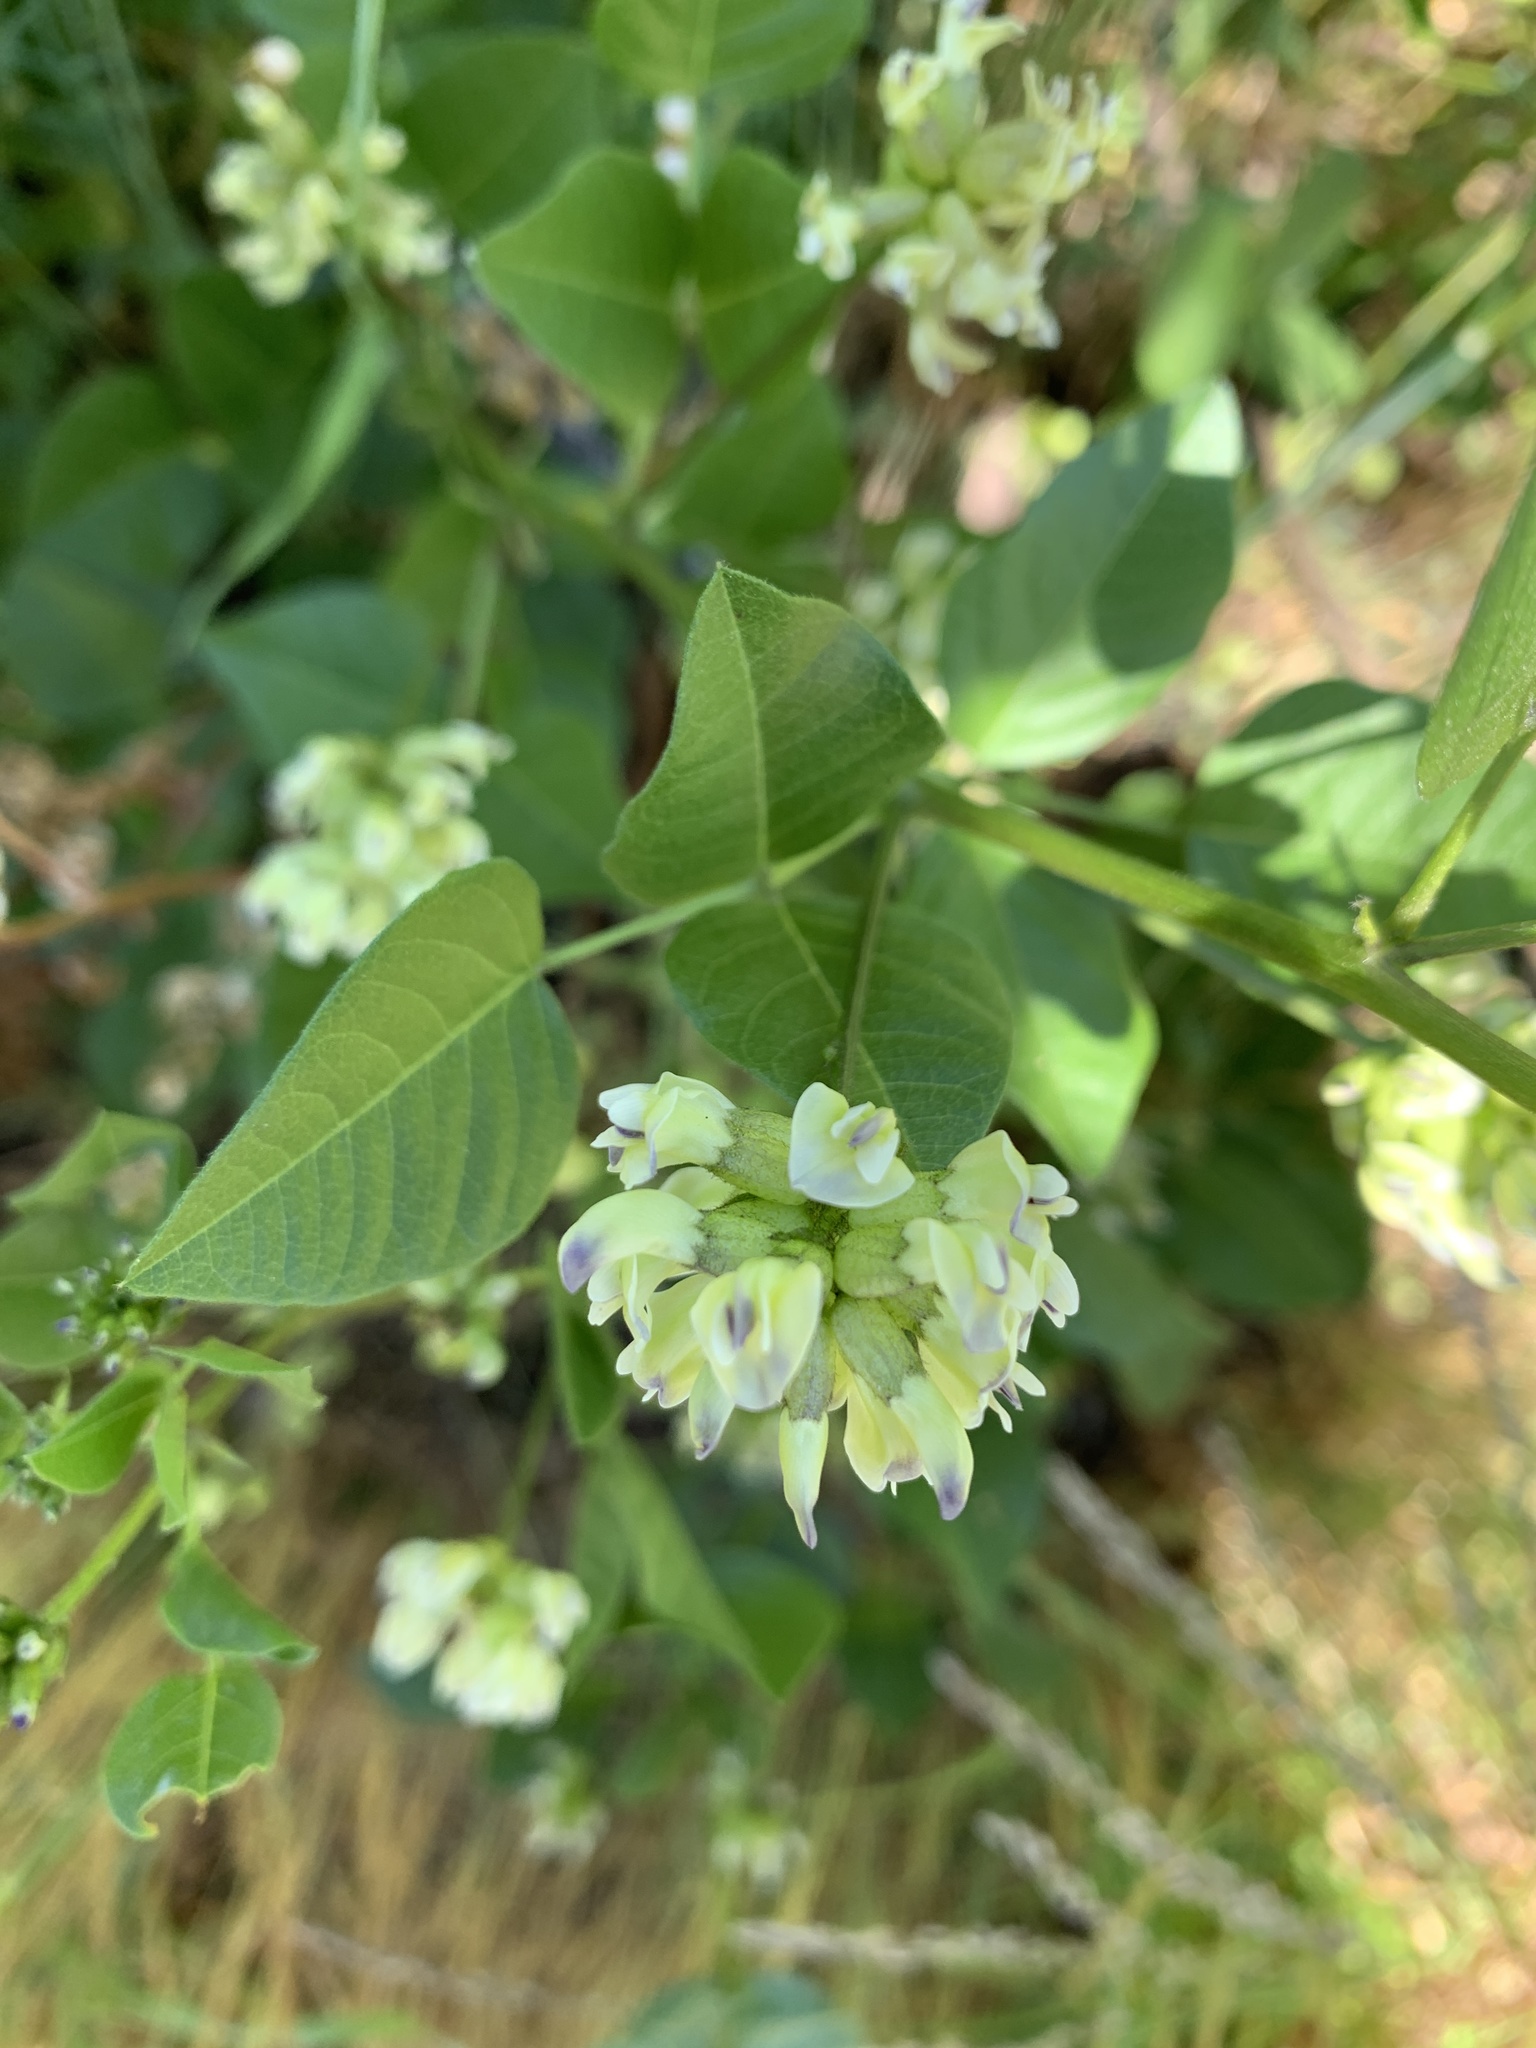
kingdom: Plantae
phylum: Tracheophyta
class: Magnoliopsida
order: Fabales
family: Fabaceae
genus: Rupertia
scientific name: Rupertia physodes
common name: California-tea
